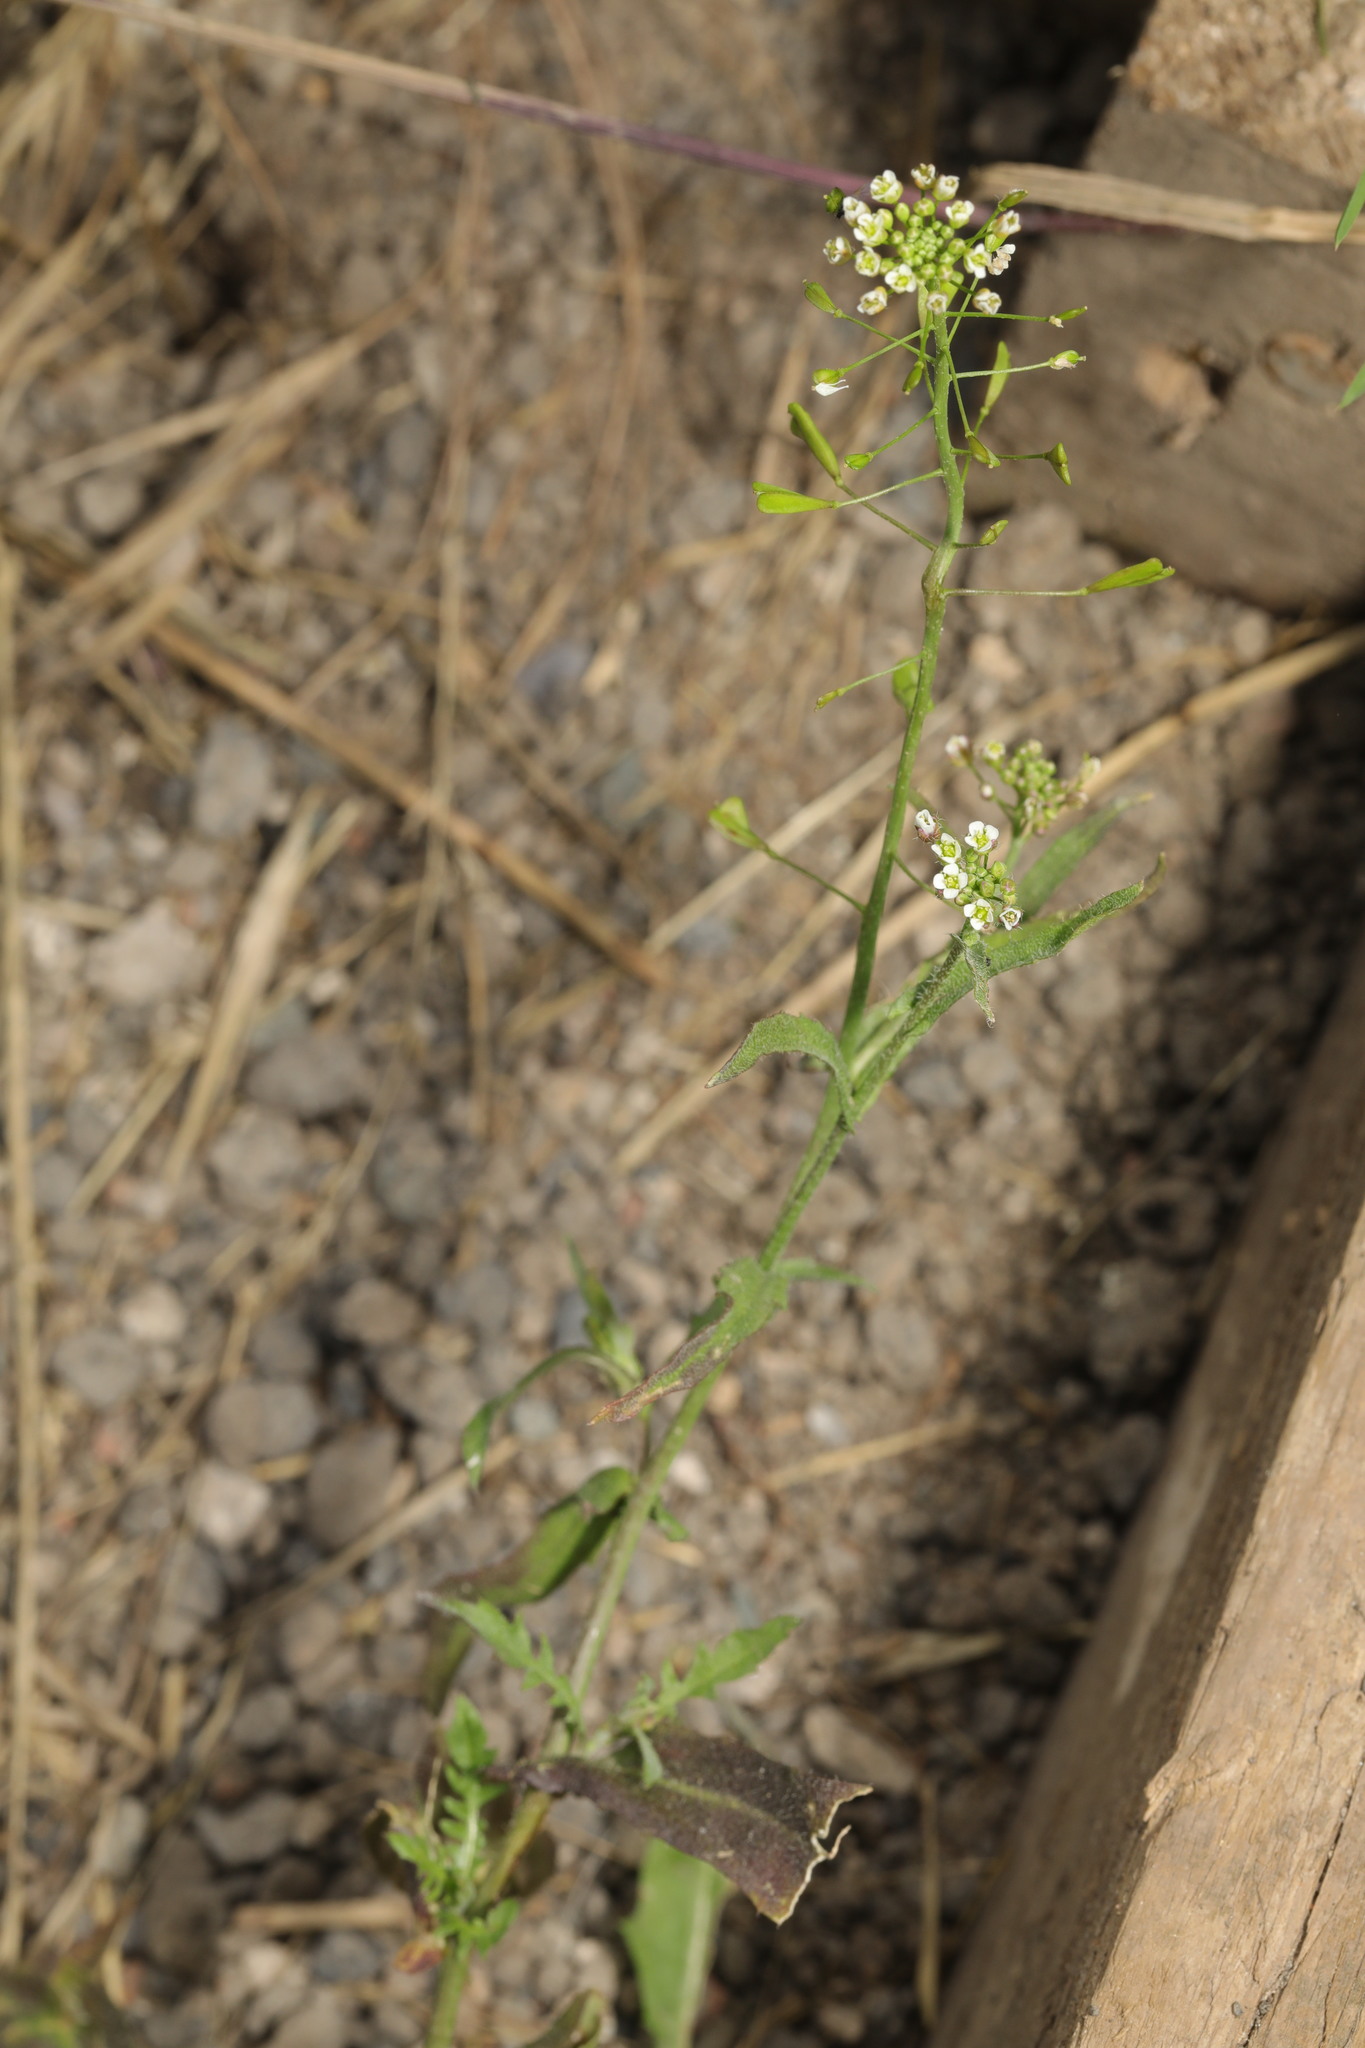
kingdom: Plantae
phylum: Tracheophyta
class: Magnoliopsida
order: Brassicales
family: Brassicaceae
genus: Capsella
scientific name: Capsella bursa-pastoris
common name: Shepherd's purse
